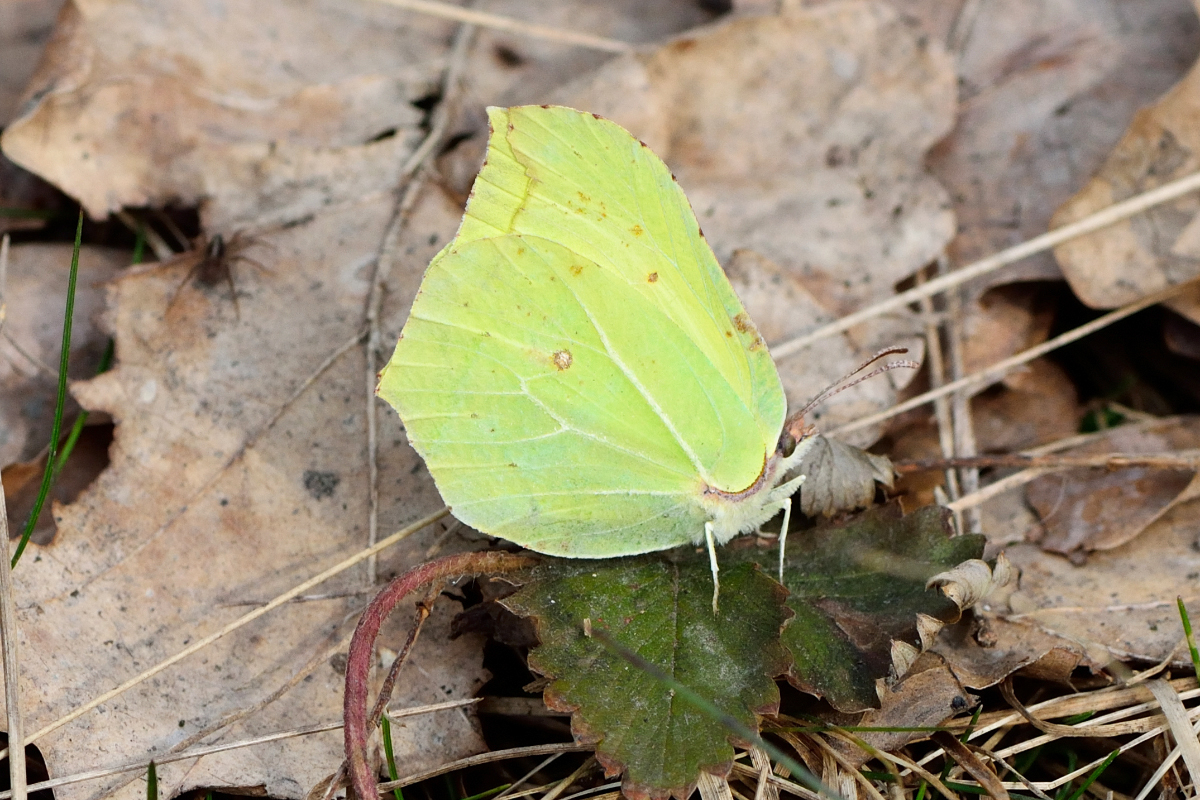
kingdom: Animalia
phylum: Arthropoda
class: Insecta
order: Lepidoptera
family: Pieridae
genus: Gonepteryx
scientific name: Gonepteryx rhamni
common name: Brimstone
